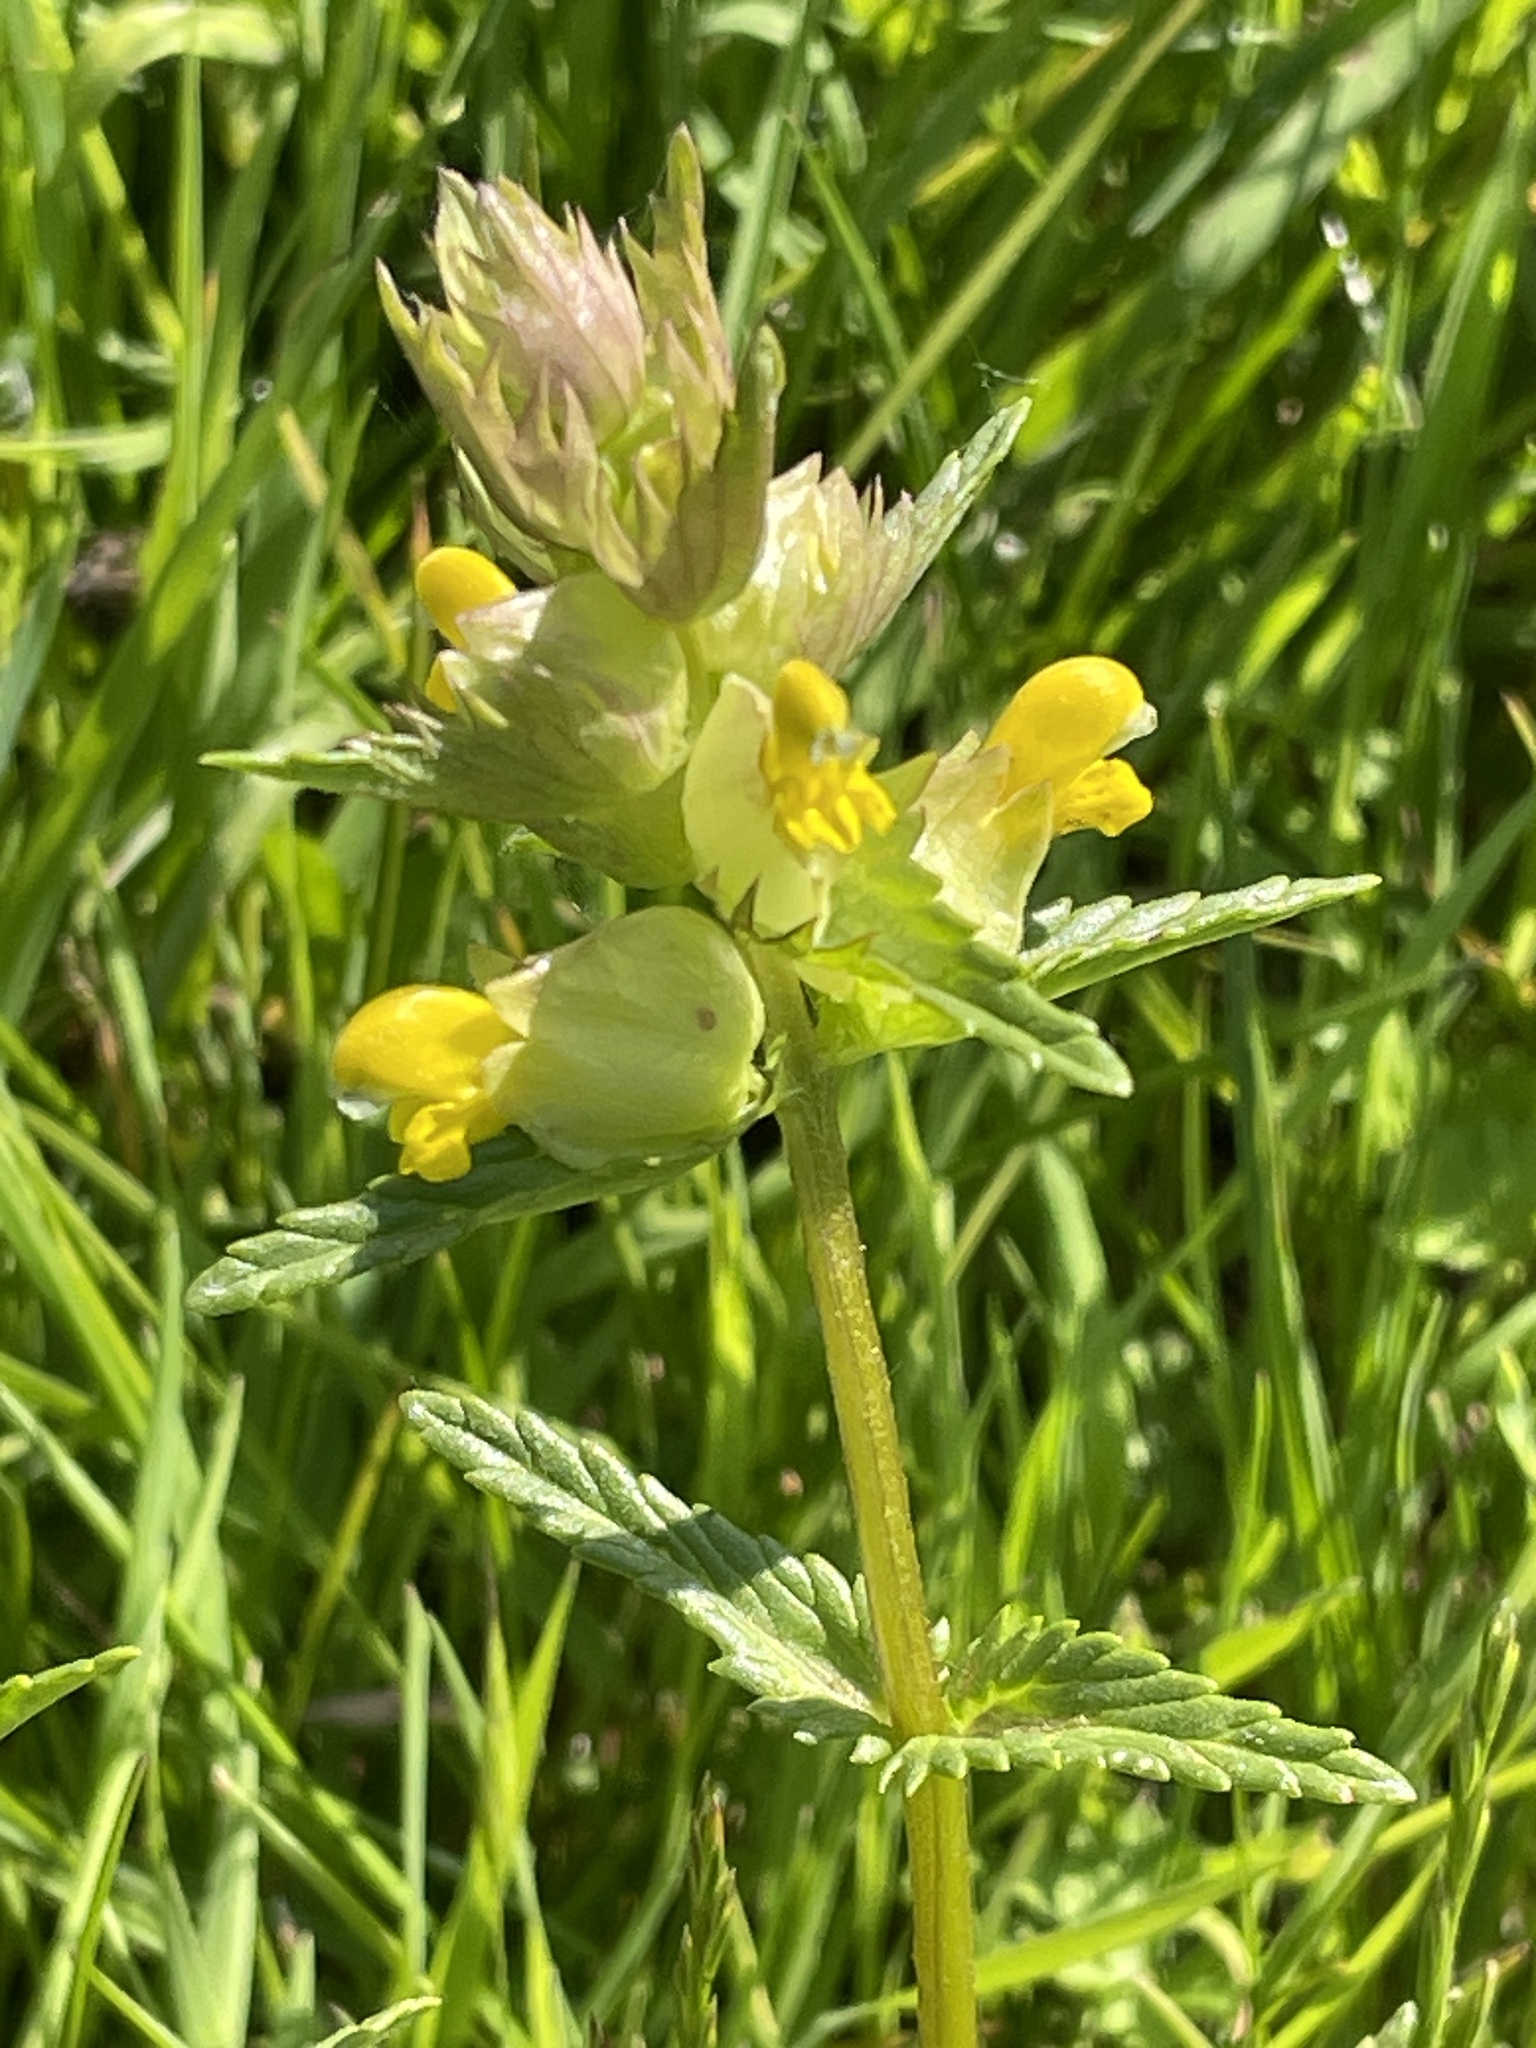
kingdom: Plantae
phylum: Tracheophyta
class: Magnoliopsida
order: Lamiales
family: Orobanchaceae
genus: Rhinanthus
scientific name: Rhinanthus minor
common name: Yellow-rattle
